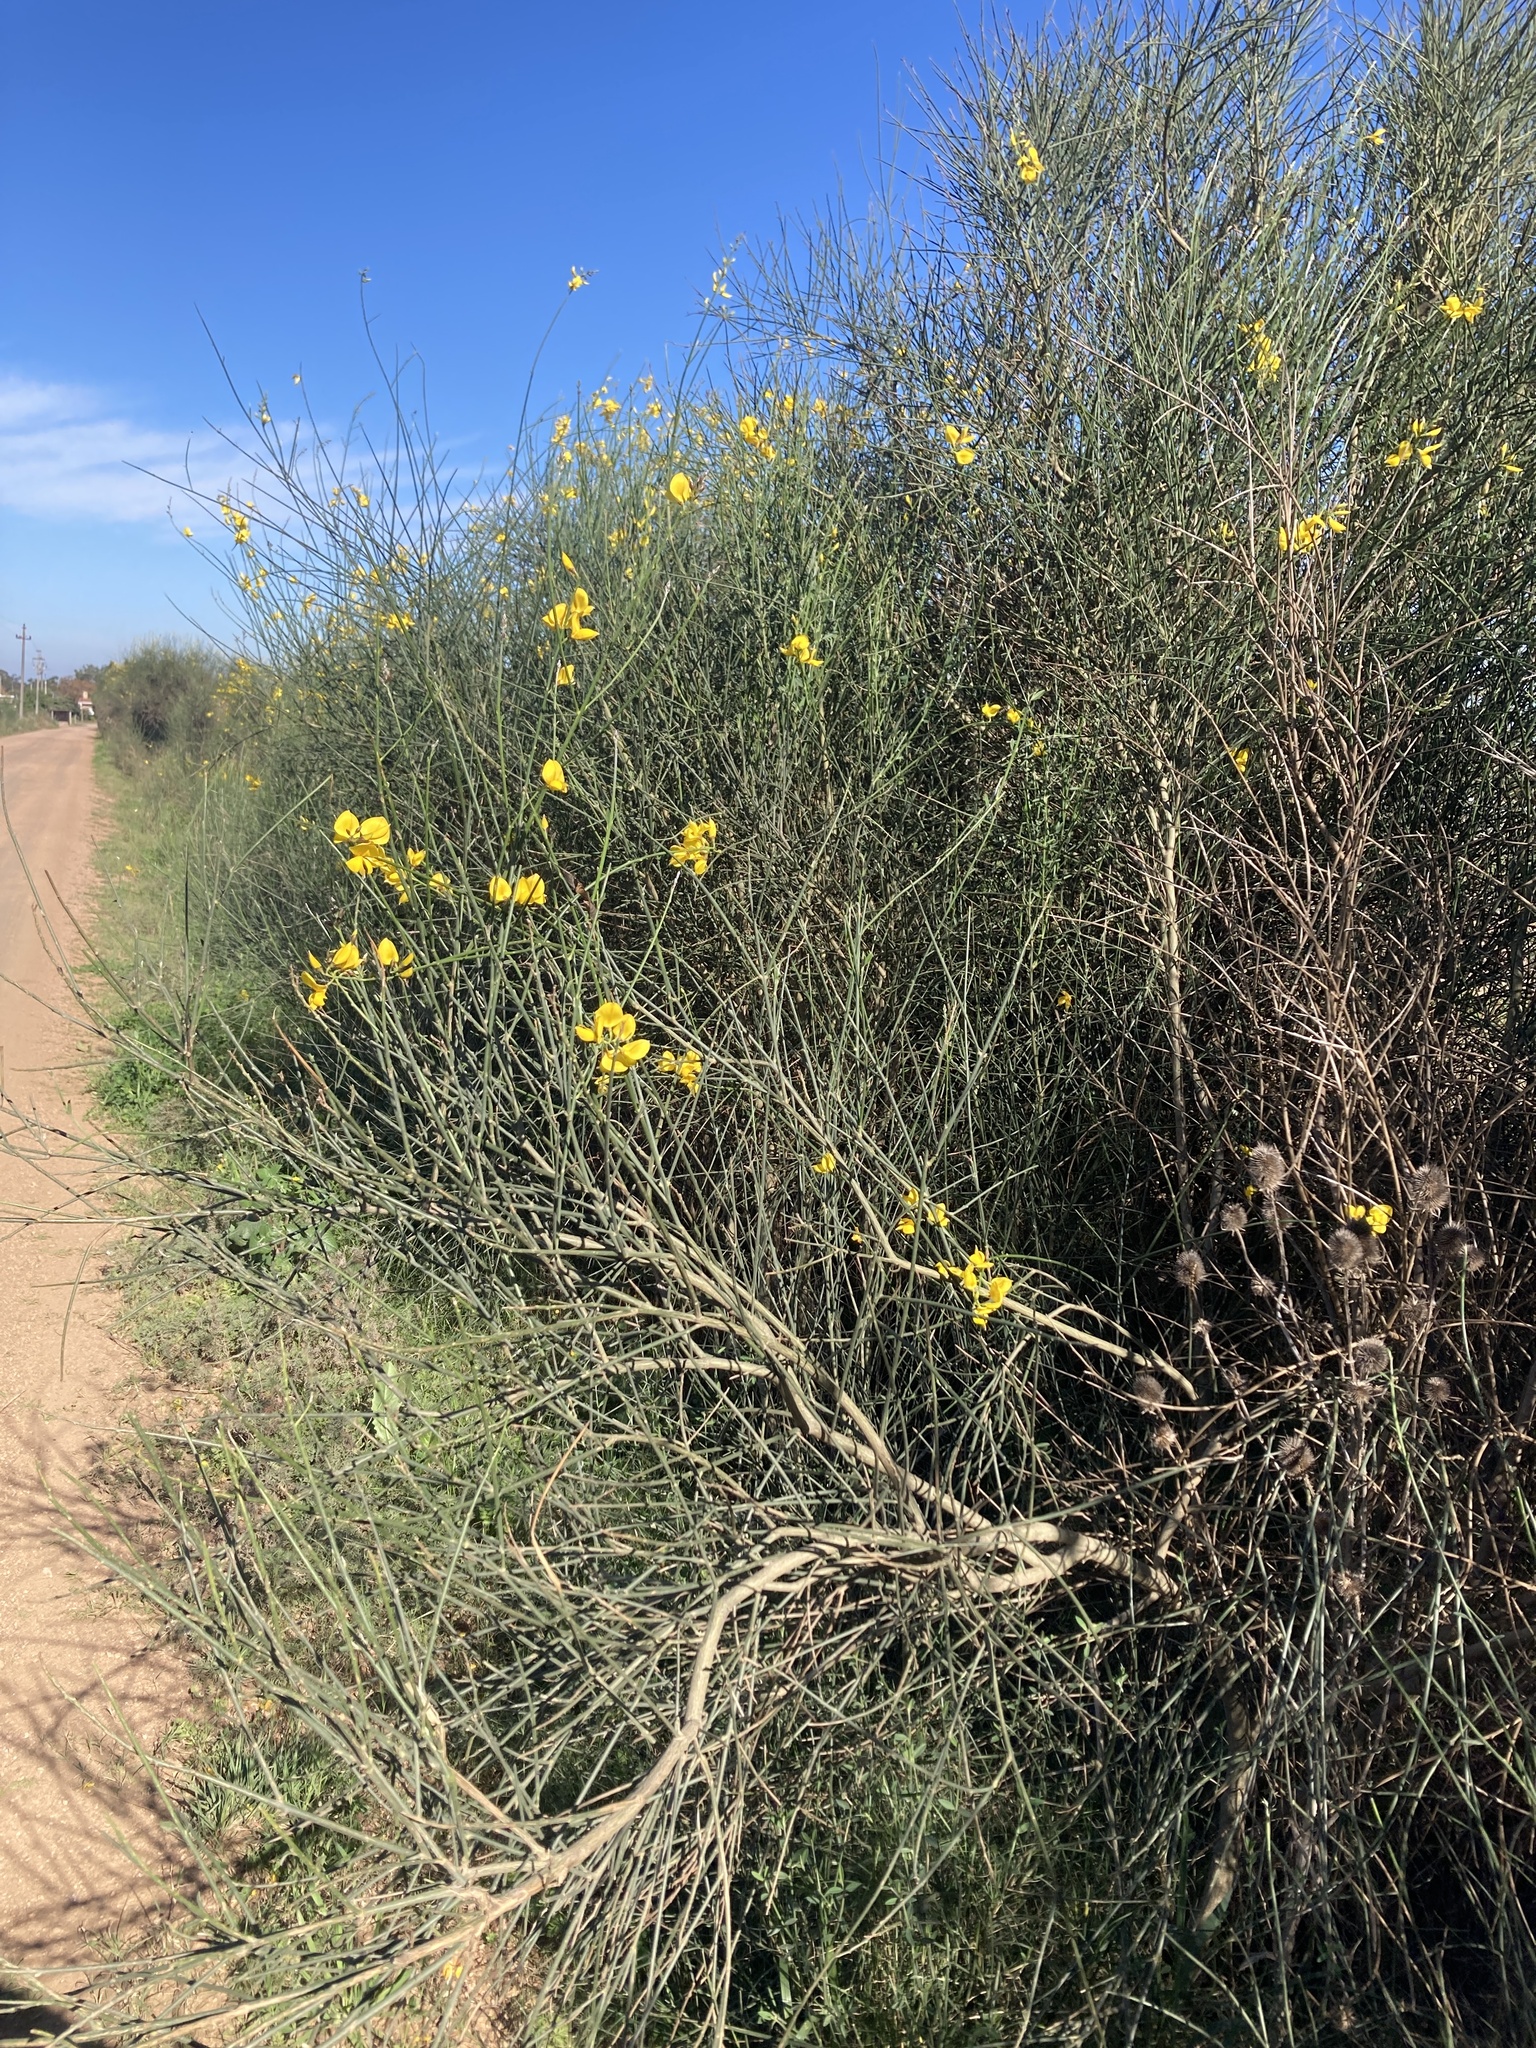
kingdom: Plantae
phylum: Tracheophyta
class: Magnoliopsida
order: Fabales
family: Fabaceae
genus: Spartium
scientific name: Spartium junceum
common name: Spanish broom
